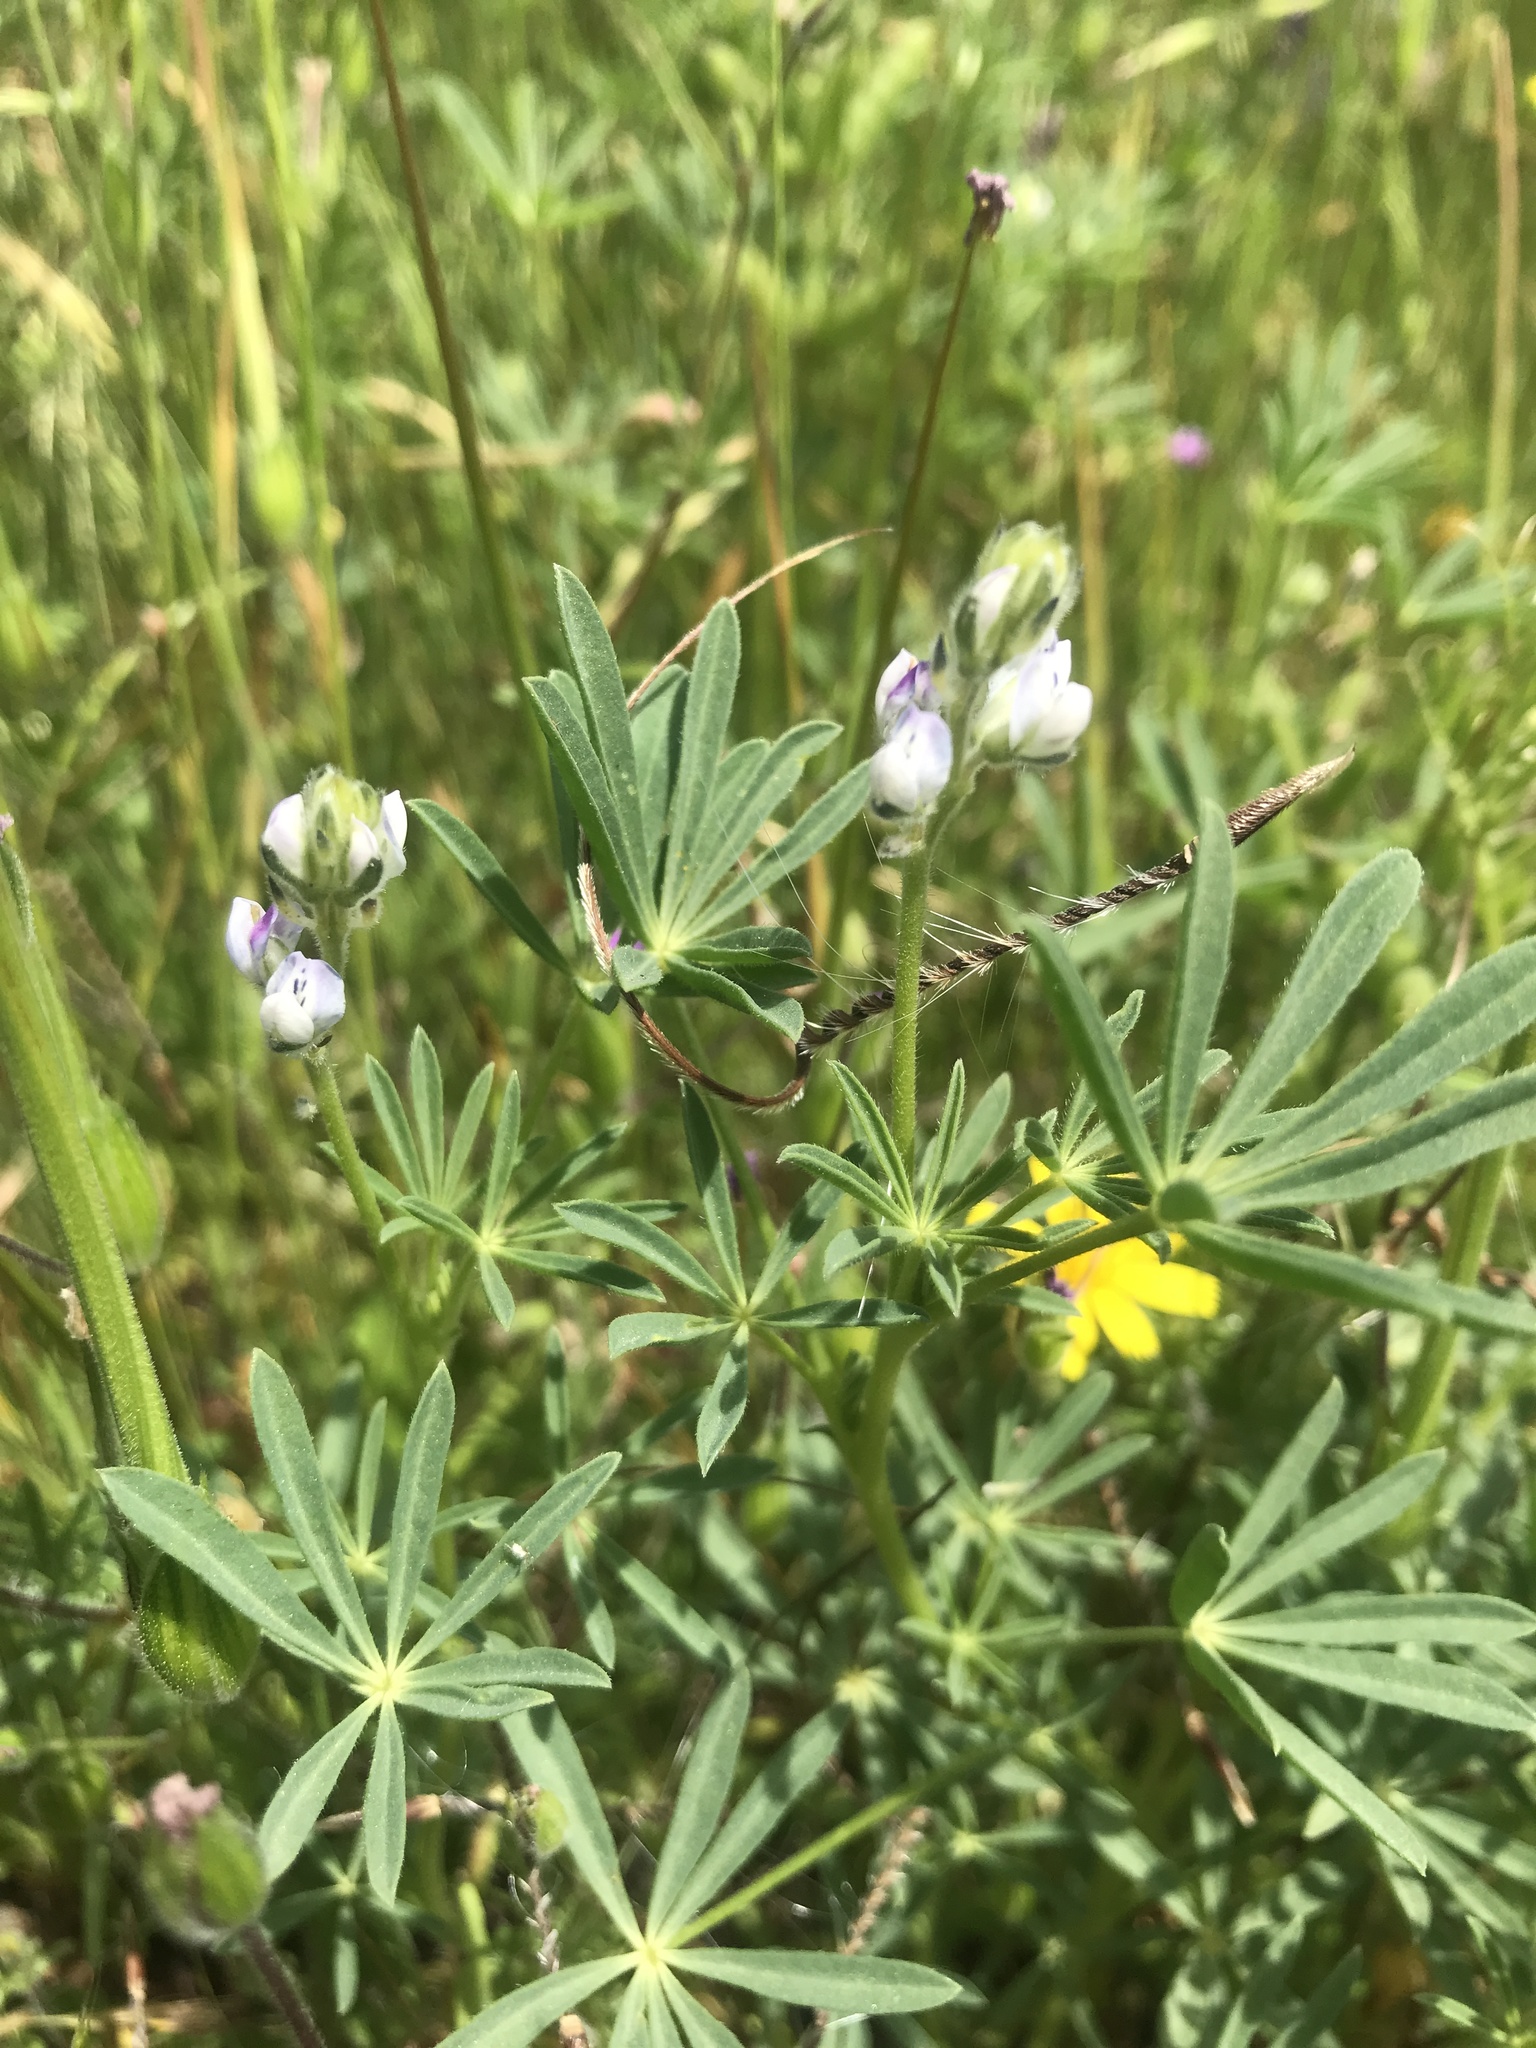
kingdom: Plantae
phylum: Tracheophyta
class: Magnoliopsida
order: Fabales
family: Fabaceae
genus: Lupinus
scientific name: Lupinus bicolor
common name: Miniature lupine
